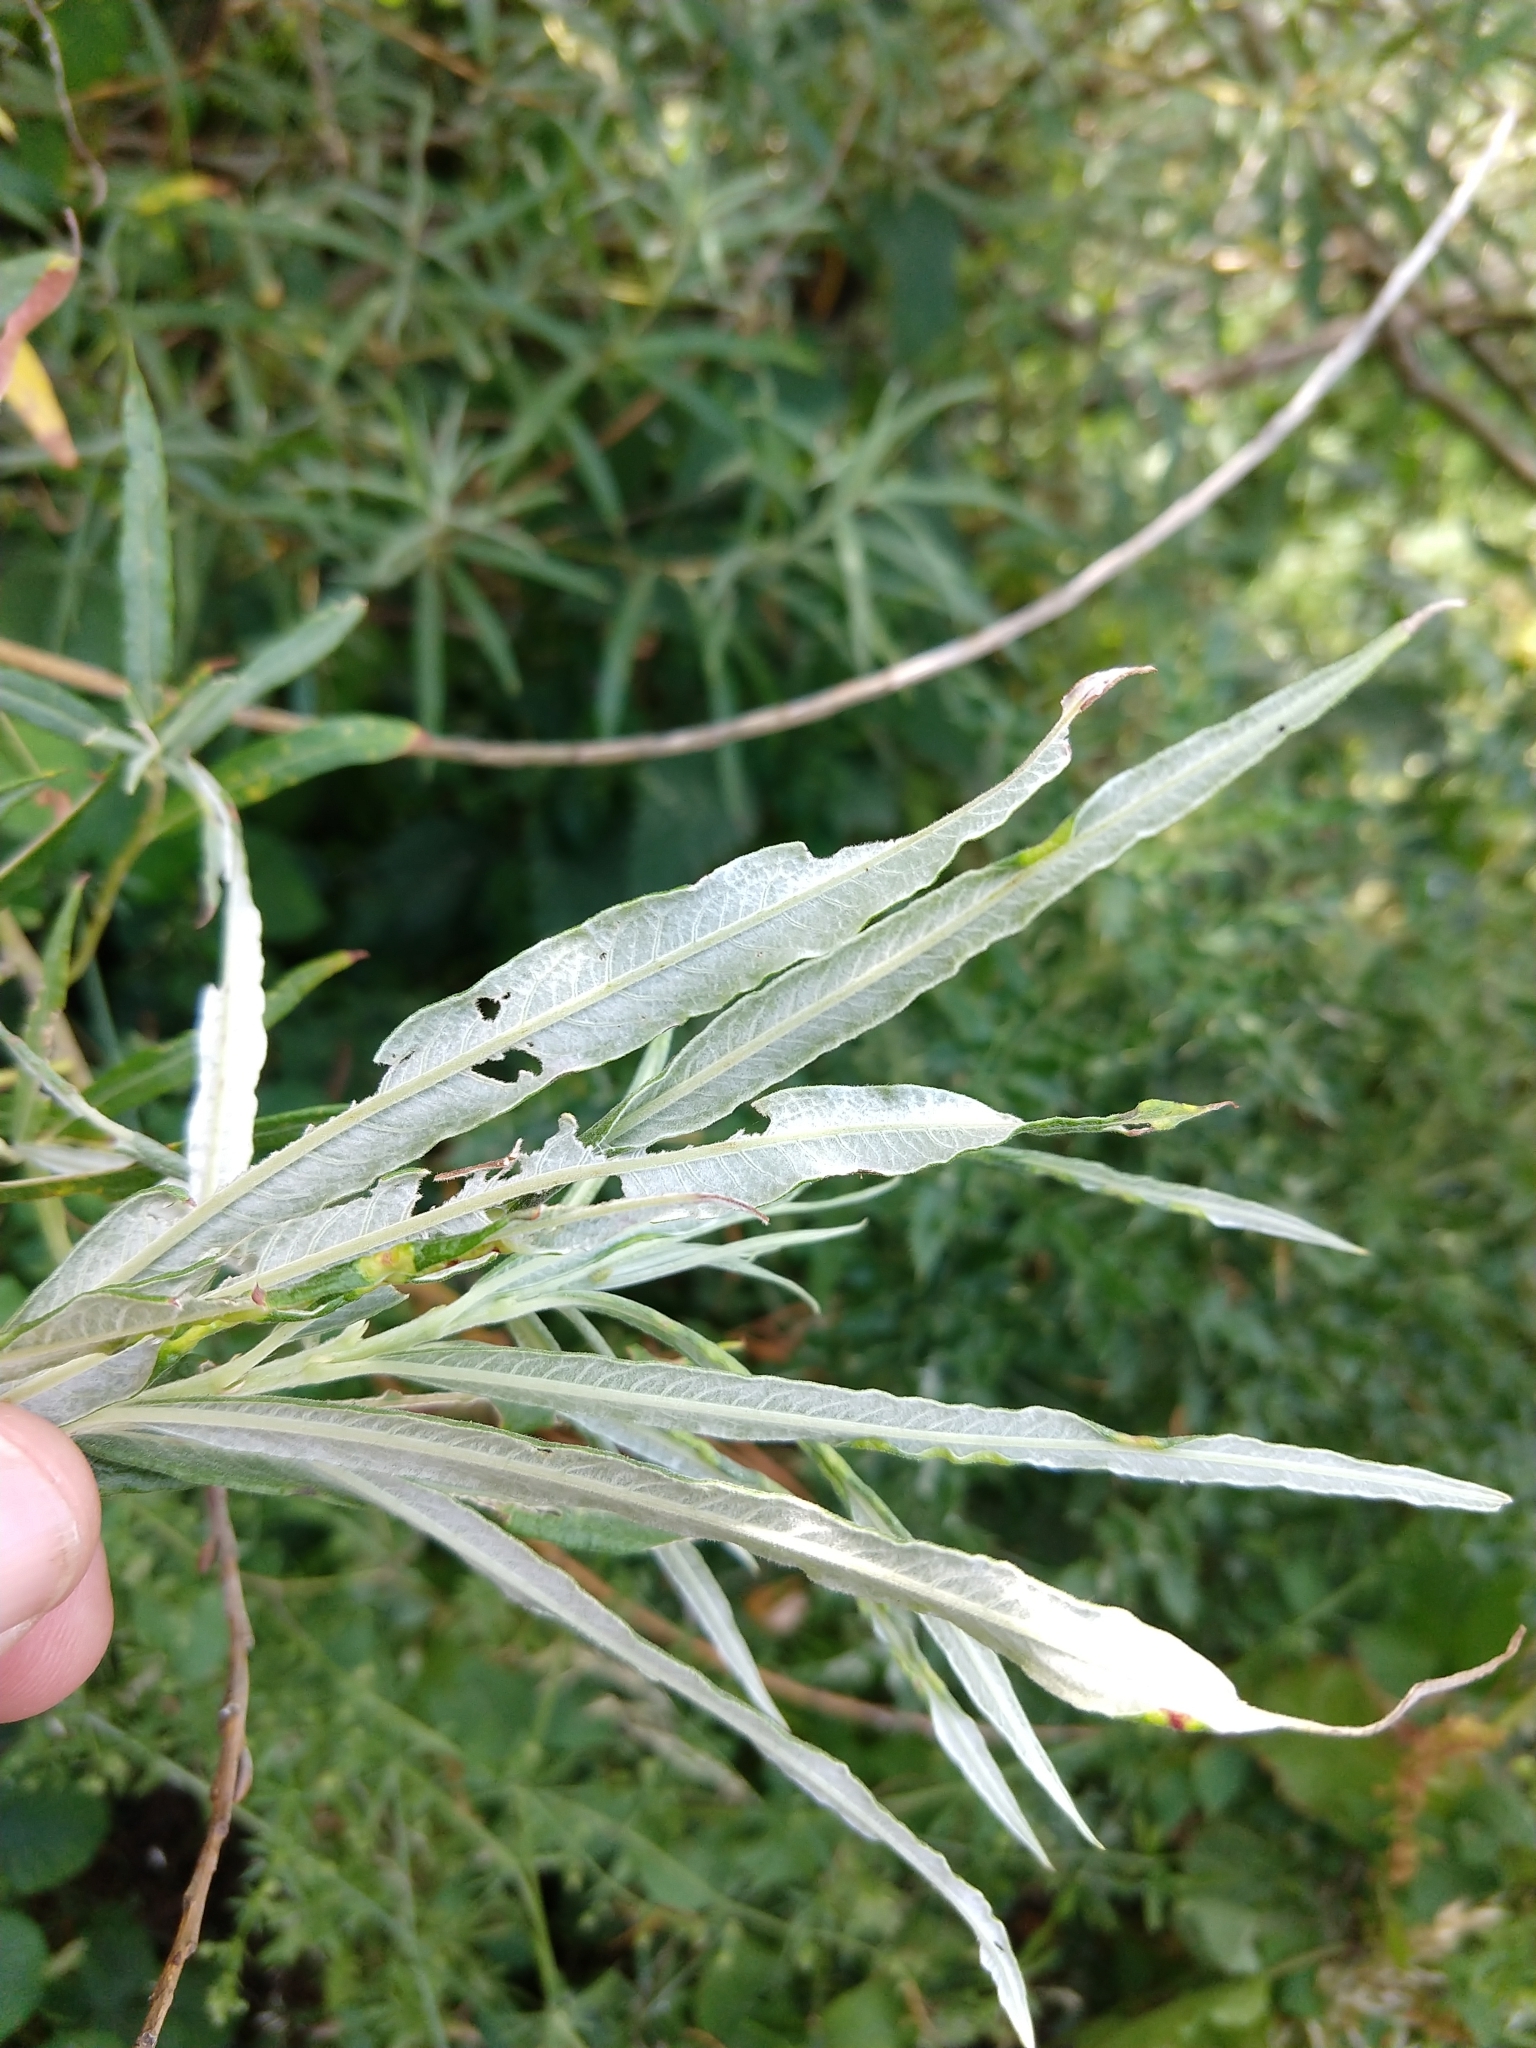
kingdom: Plantae
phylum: Tracheophyta
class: Magnoliopsida
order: Malpighiales
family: Salicaceae
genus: Salix
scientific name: Salix viminalis
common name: Osier
